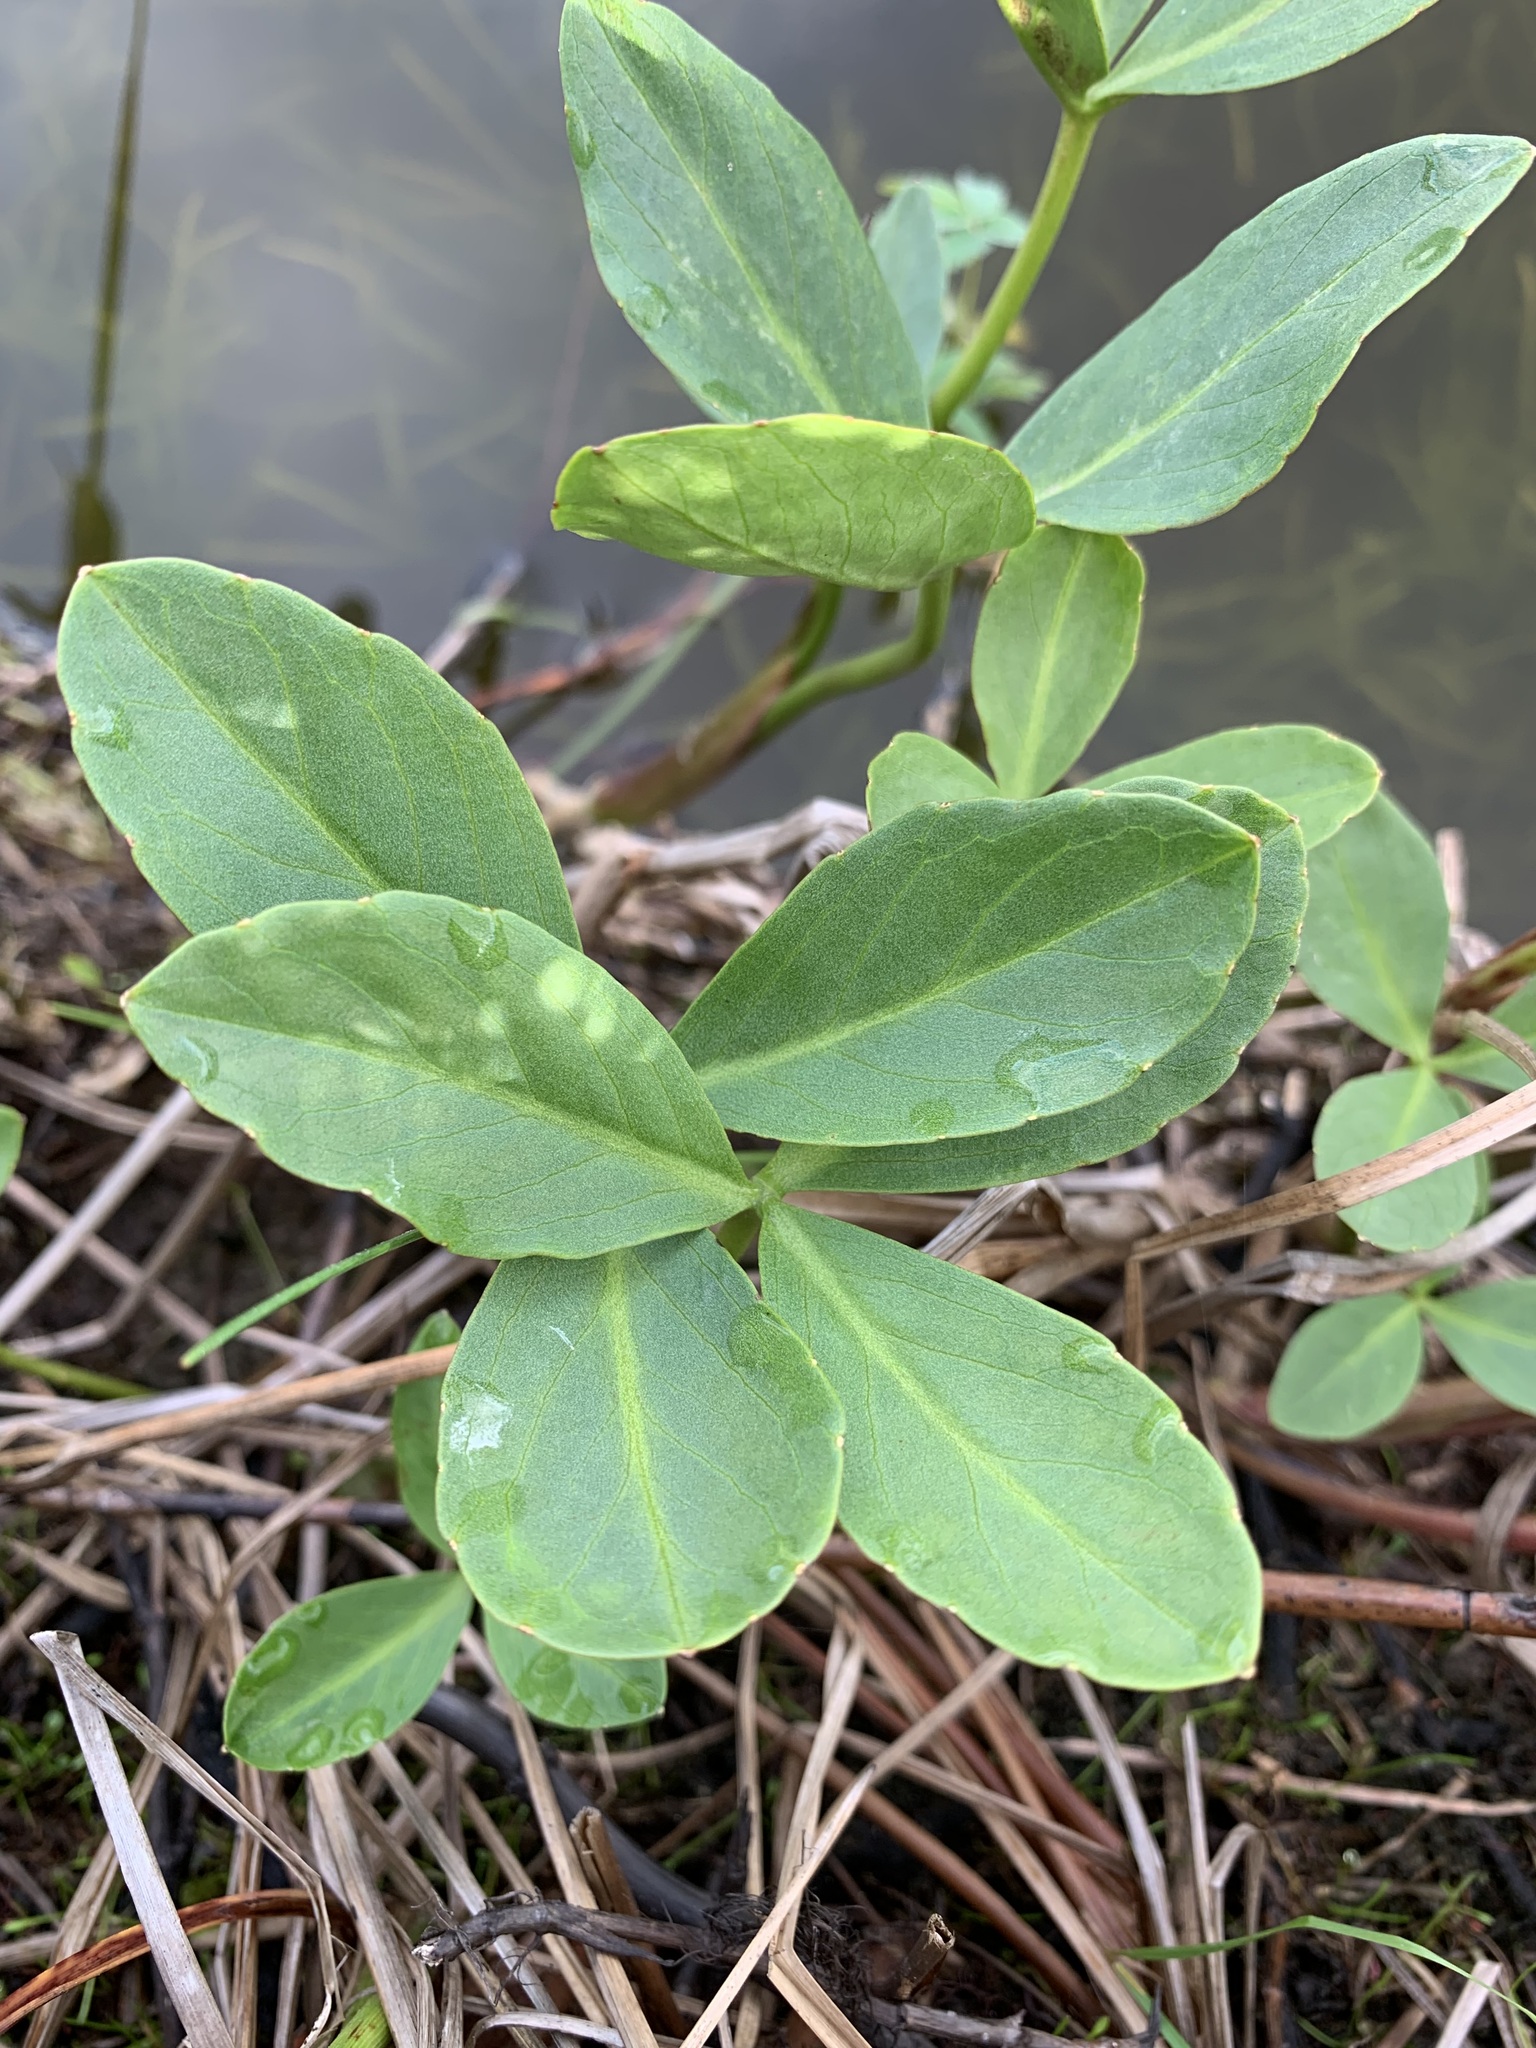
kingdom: Plantae
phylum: Tracheophyta
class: Magnoliopsida
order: Asterales
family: Menyanthaceae
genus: Menyanthes
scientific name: Menyanthes trifoliata
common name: Bogbean
